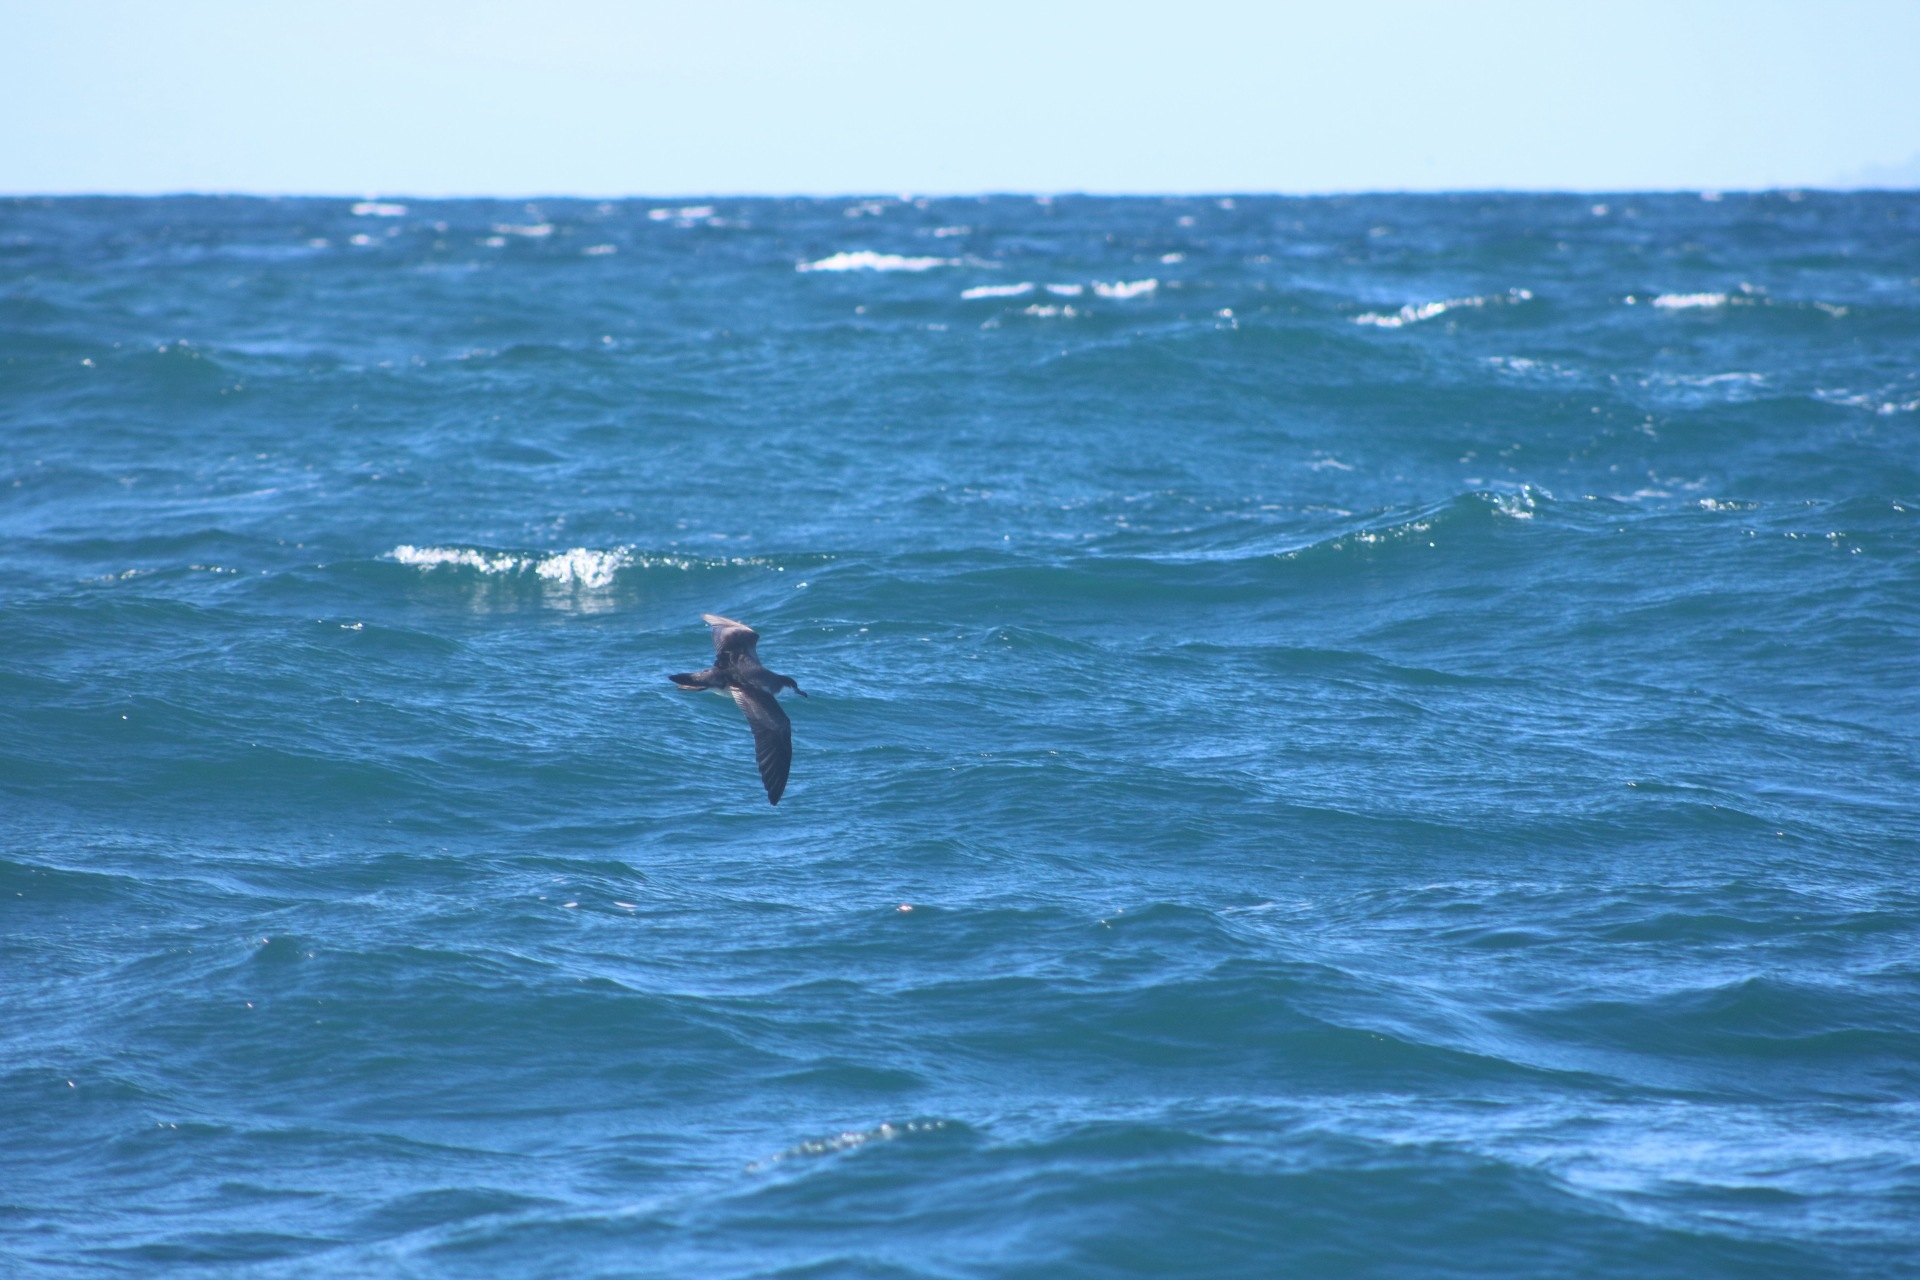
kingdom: Animalia
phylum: Chordata
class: Aves
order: Procellariiformes
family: Procellariidae
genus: Puffinus
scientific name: Puffinus bulleri
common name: Buller's shearwater
